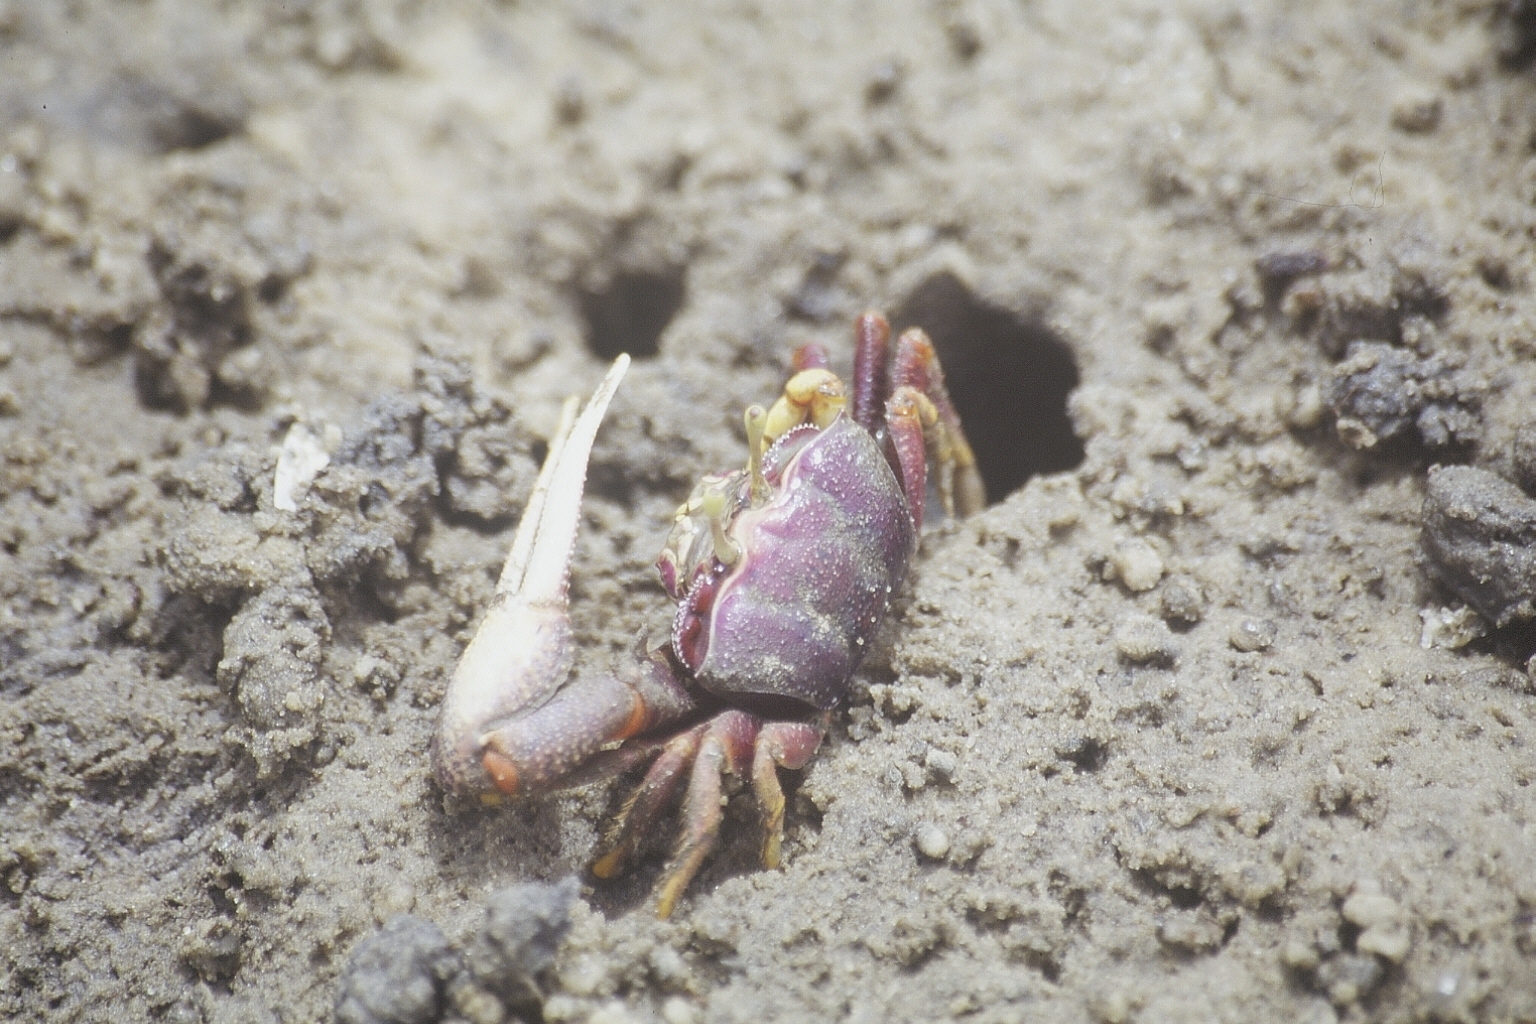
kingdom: Animalia
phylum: Arthropoda
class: Malacostraca
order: Decapoda
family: Ocypodidae
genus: Afruca
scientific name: Afruca tangeri
